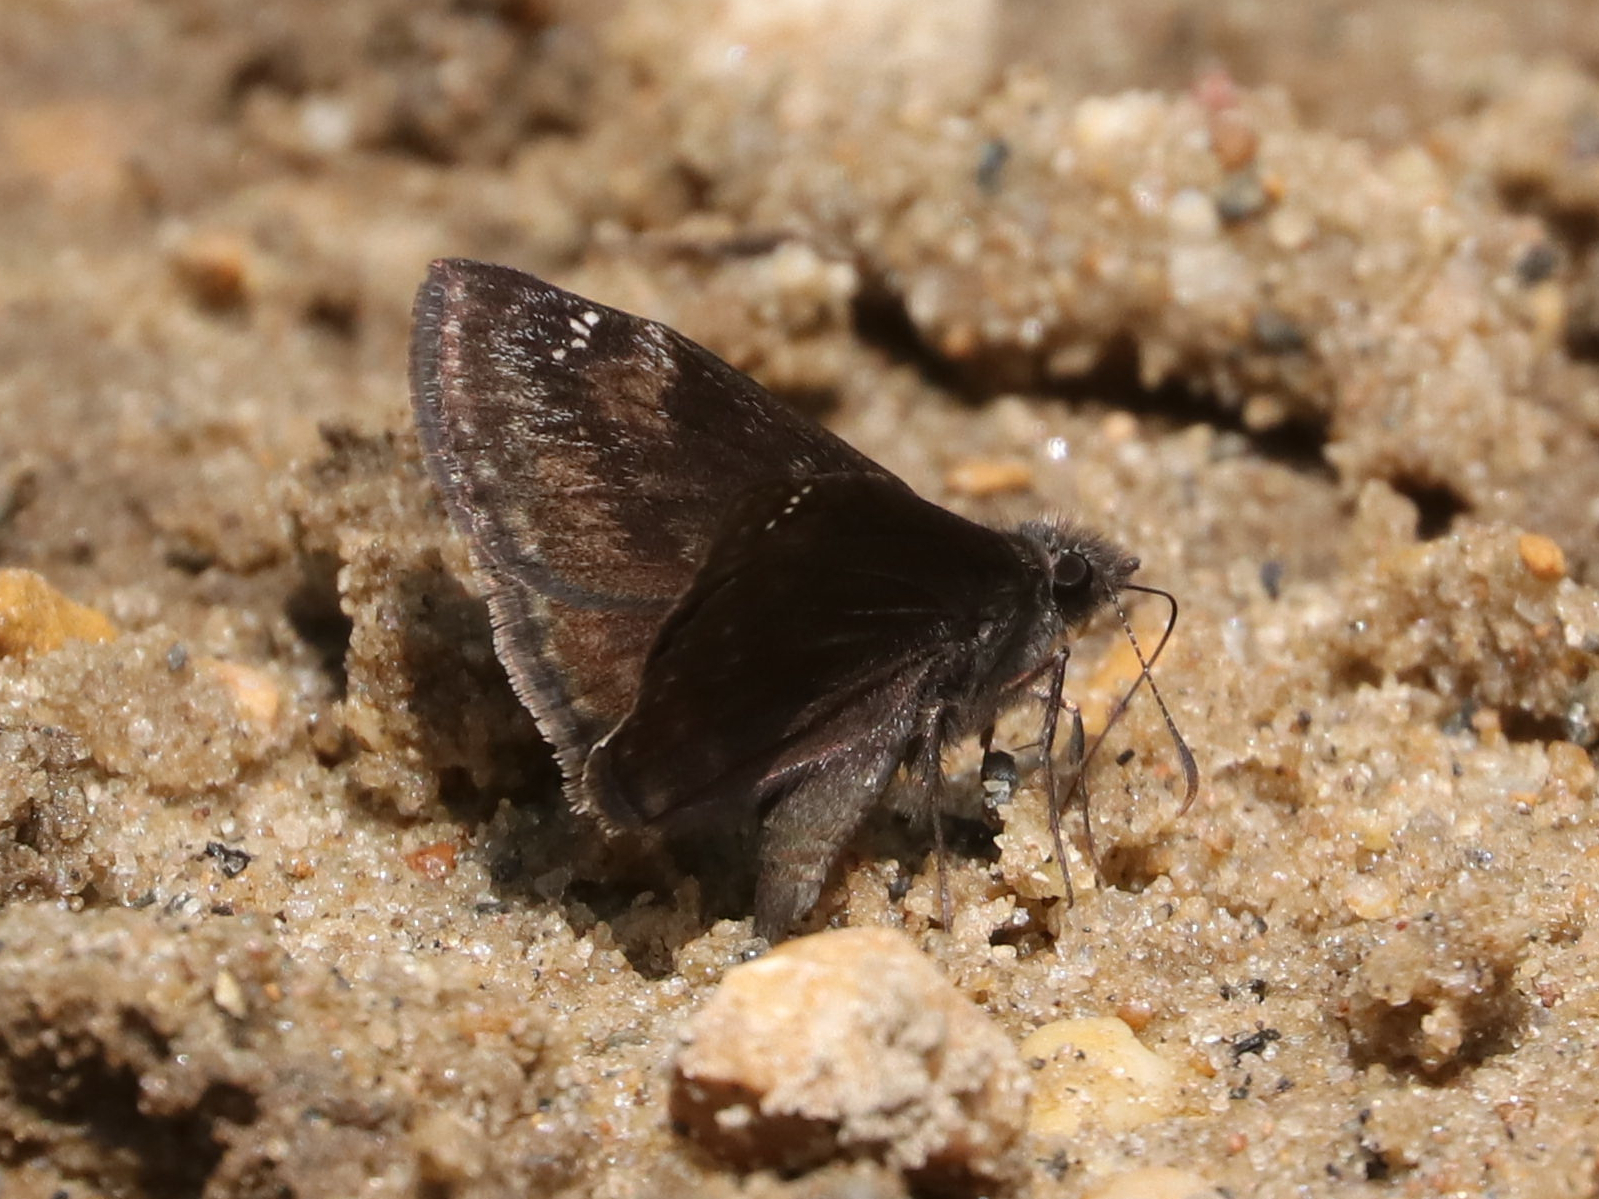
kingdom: Animalia
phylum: Arthropoda
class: Insecta
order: Lepidoptera
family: Hesperiidae
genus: Erynnis
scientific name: Erynnis baptisiae
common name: Wild indigo duskywing
